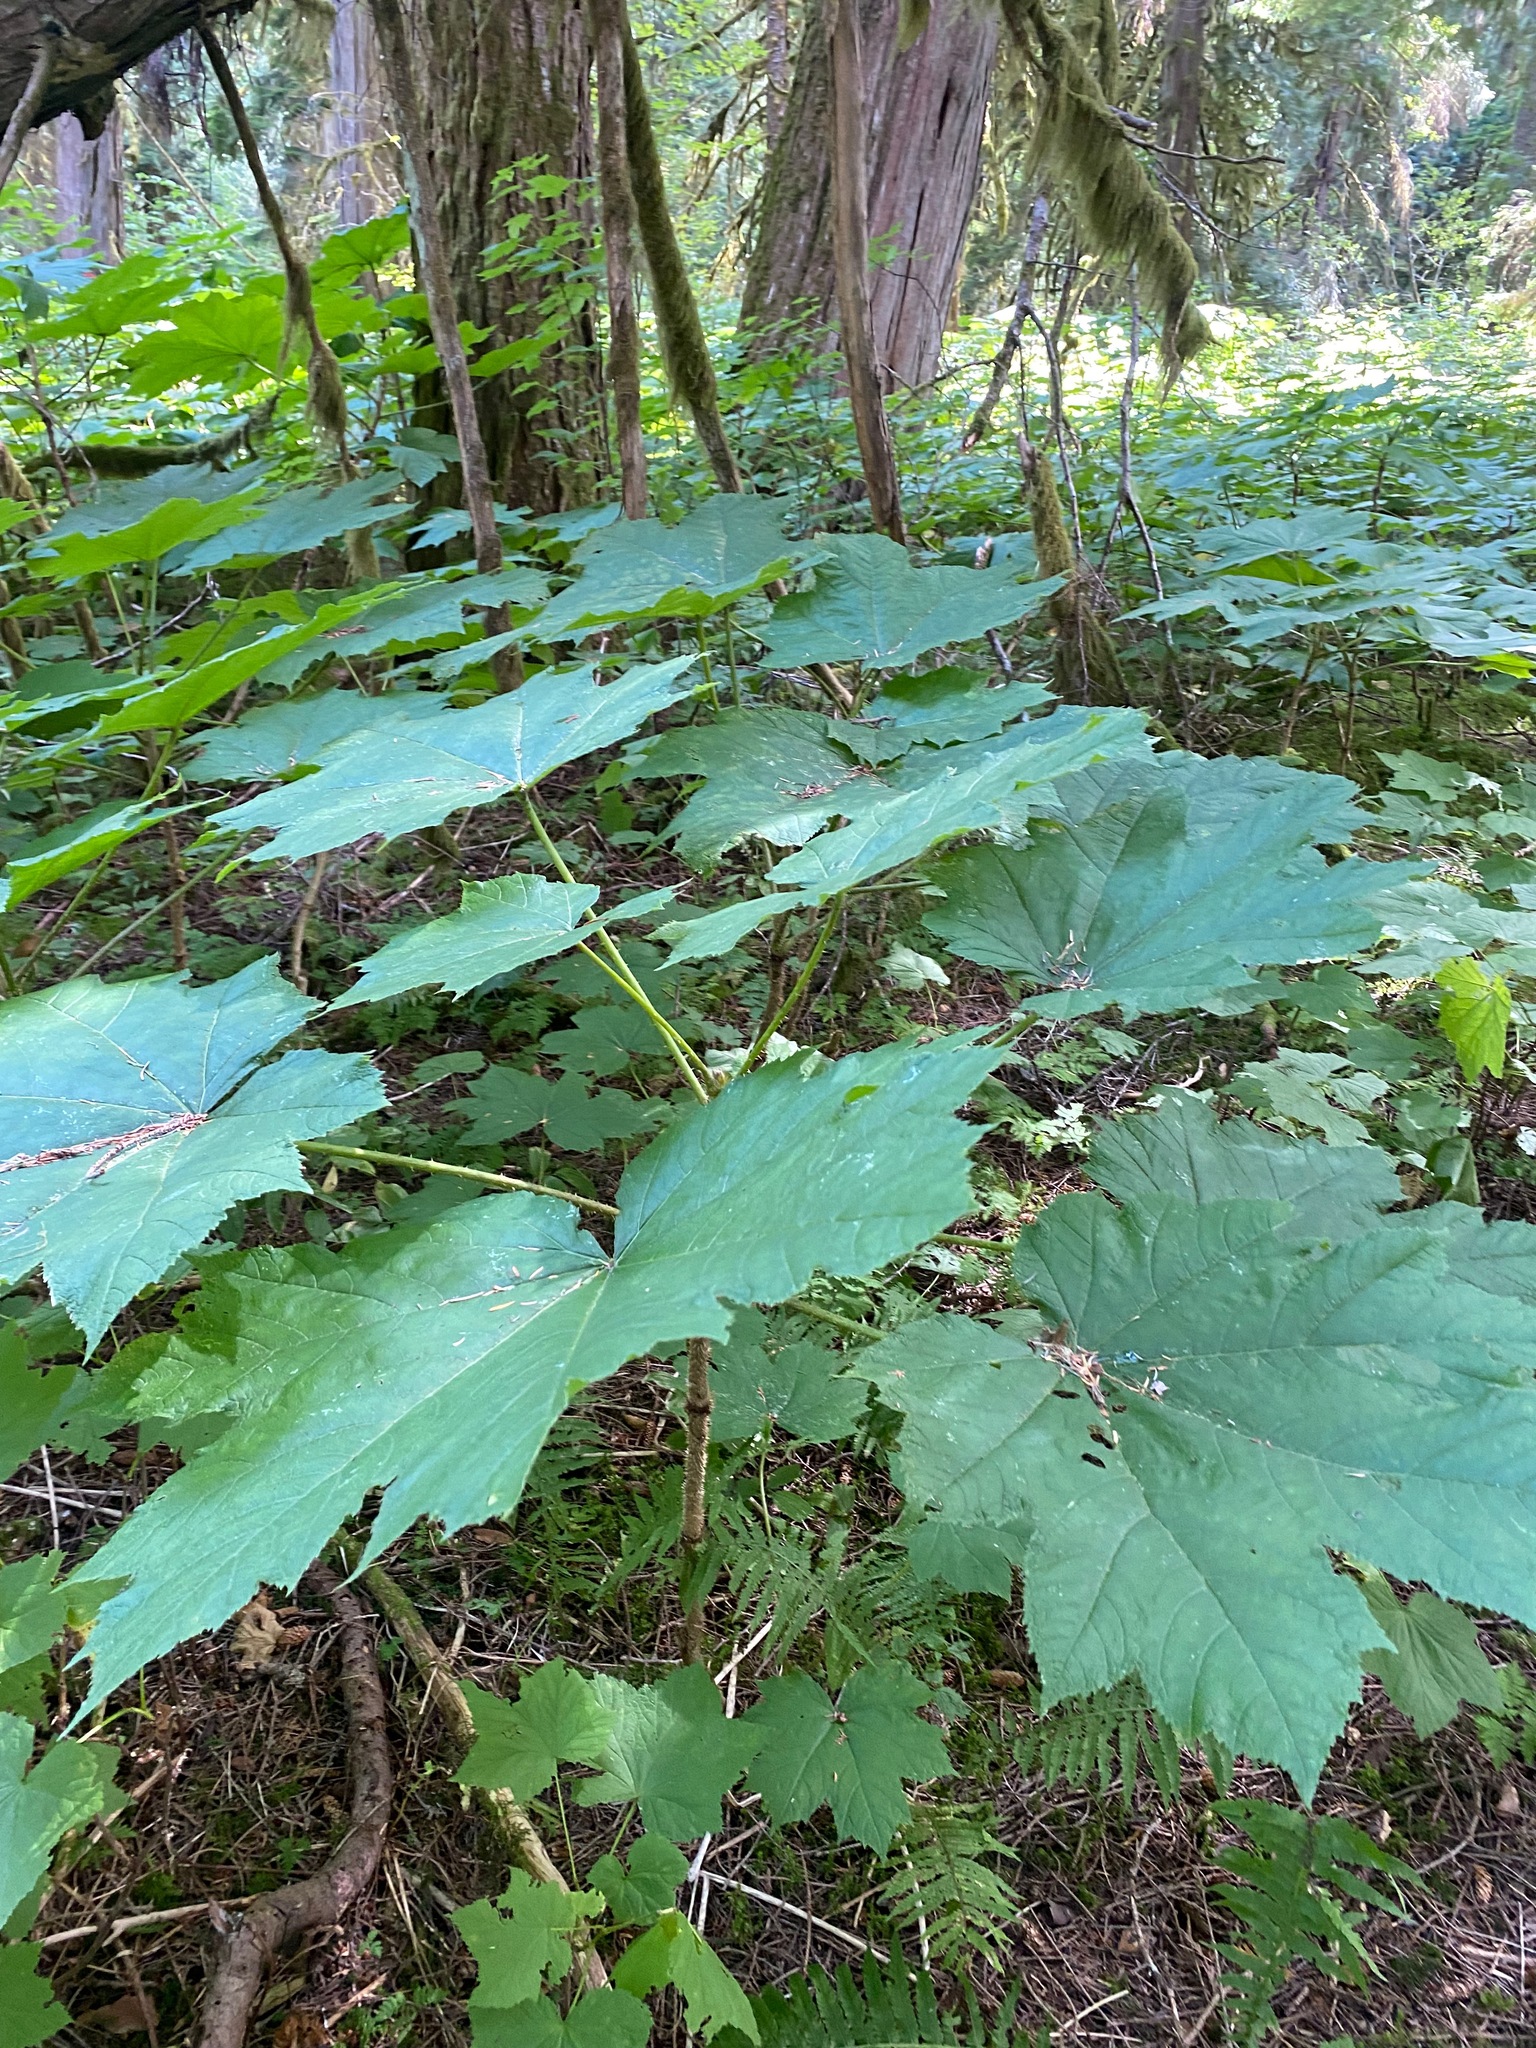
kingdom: Plantae
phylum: Tracheophyta
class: Magnoliopsida
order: Apiales
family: Araliaceae
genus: Oplopanax
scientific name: Oplopanax horridus
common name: Devil's walking-stick
